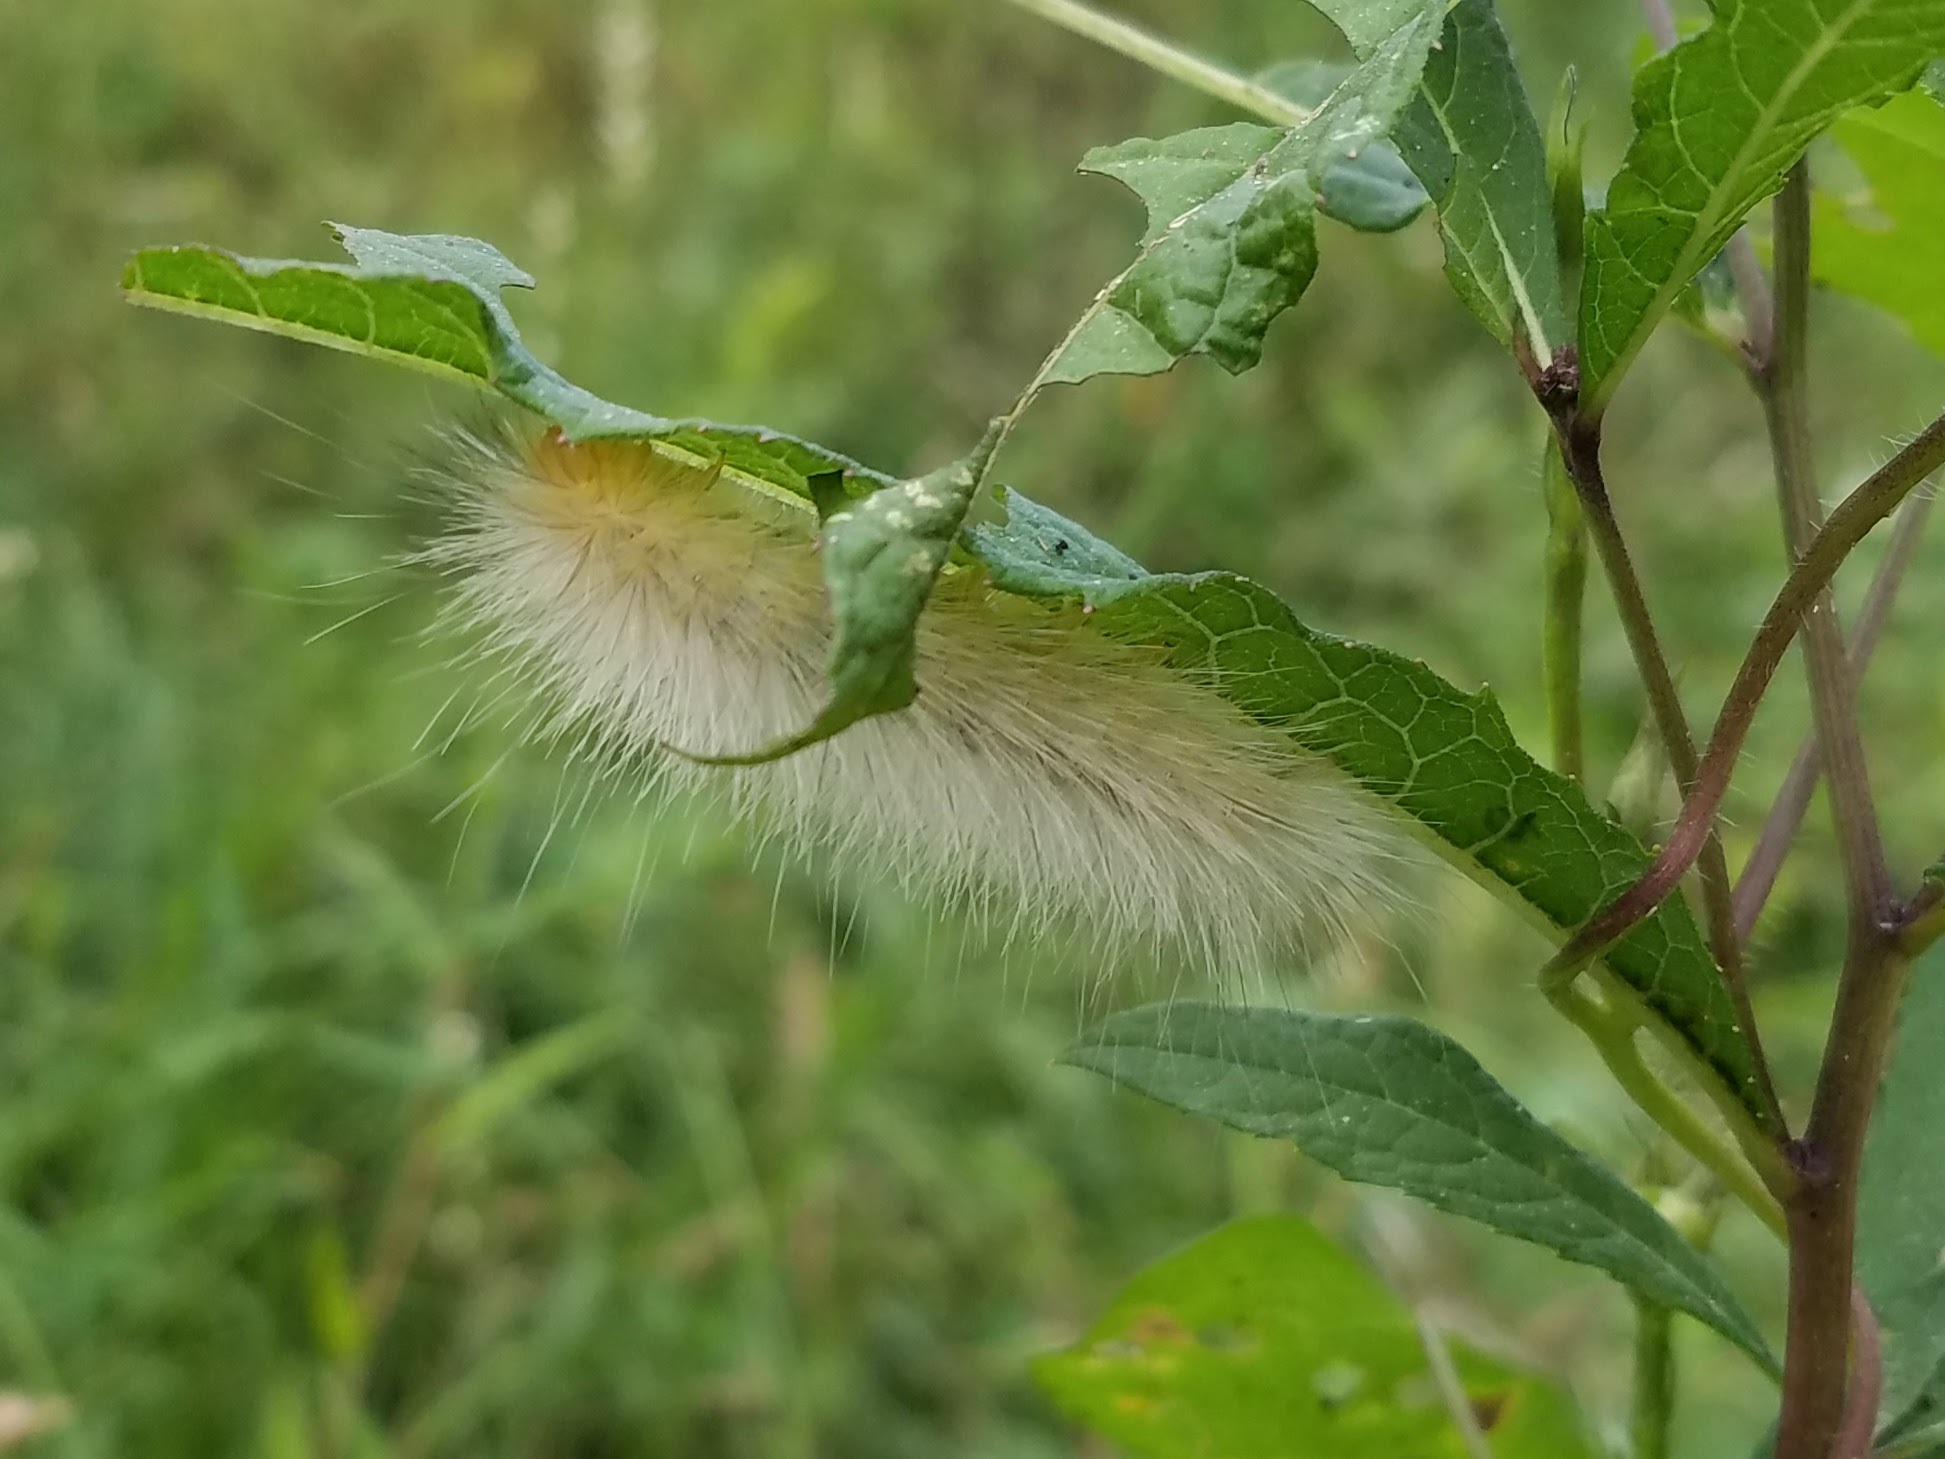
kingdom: Animalia
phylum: Arthropoda
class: Insecta
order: Lepidoptera
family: Erebidae
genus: Spilosoma
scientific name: Spilosoma virginica
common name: Virginia tiger moth
